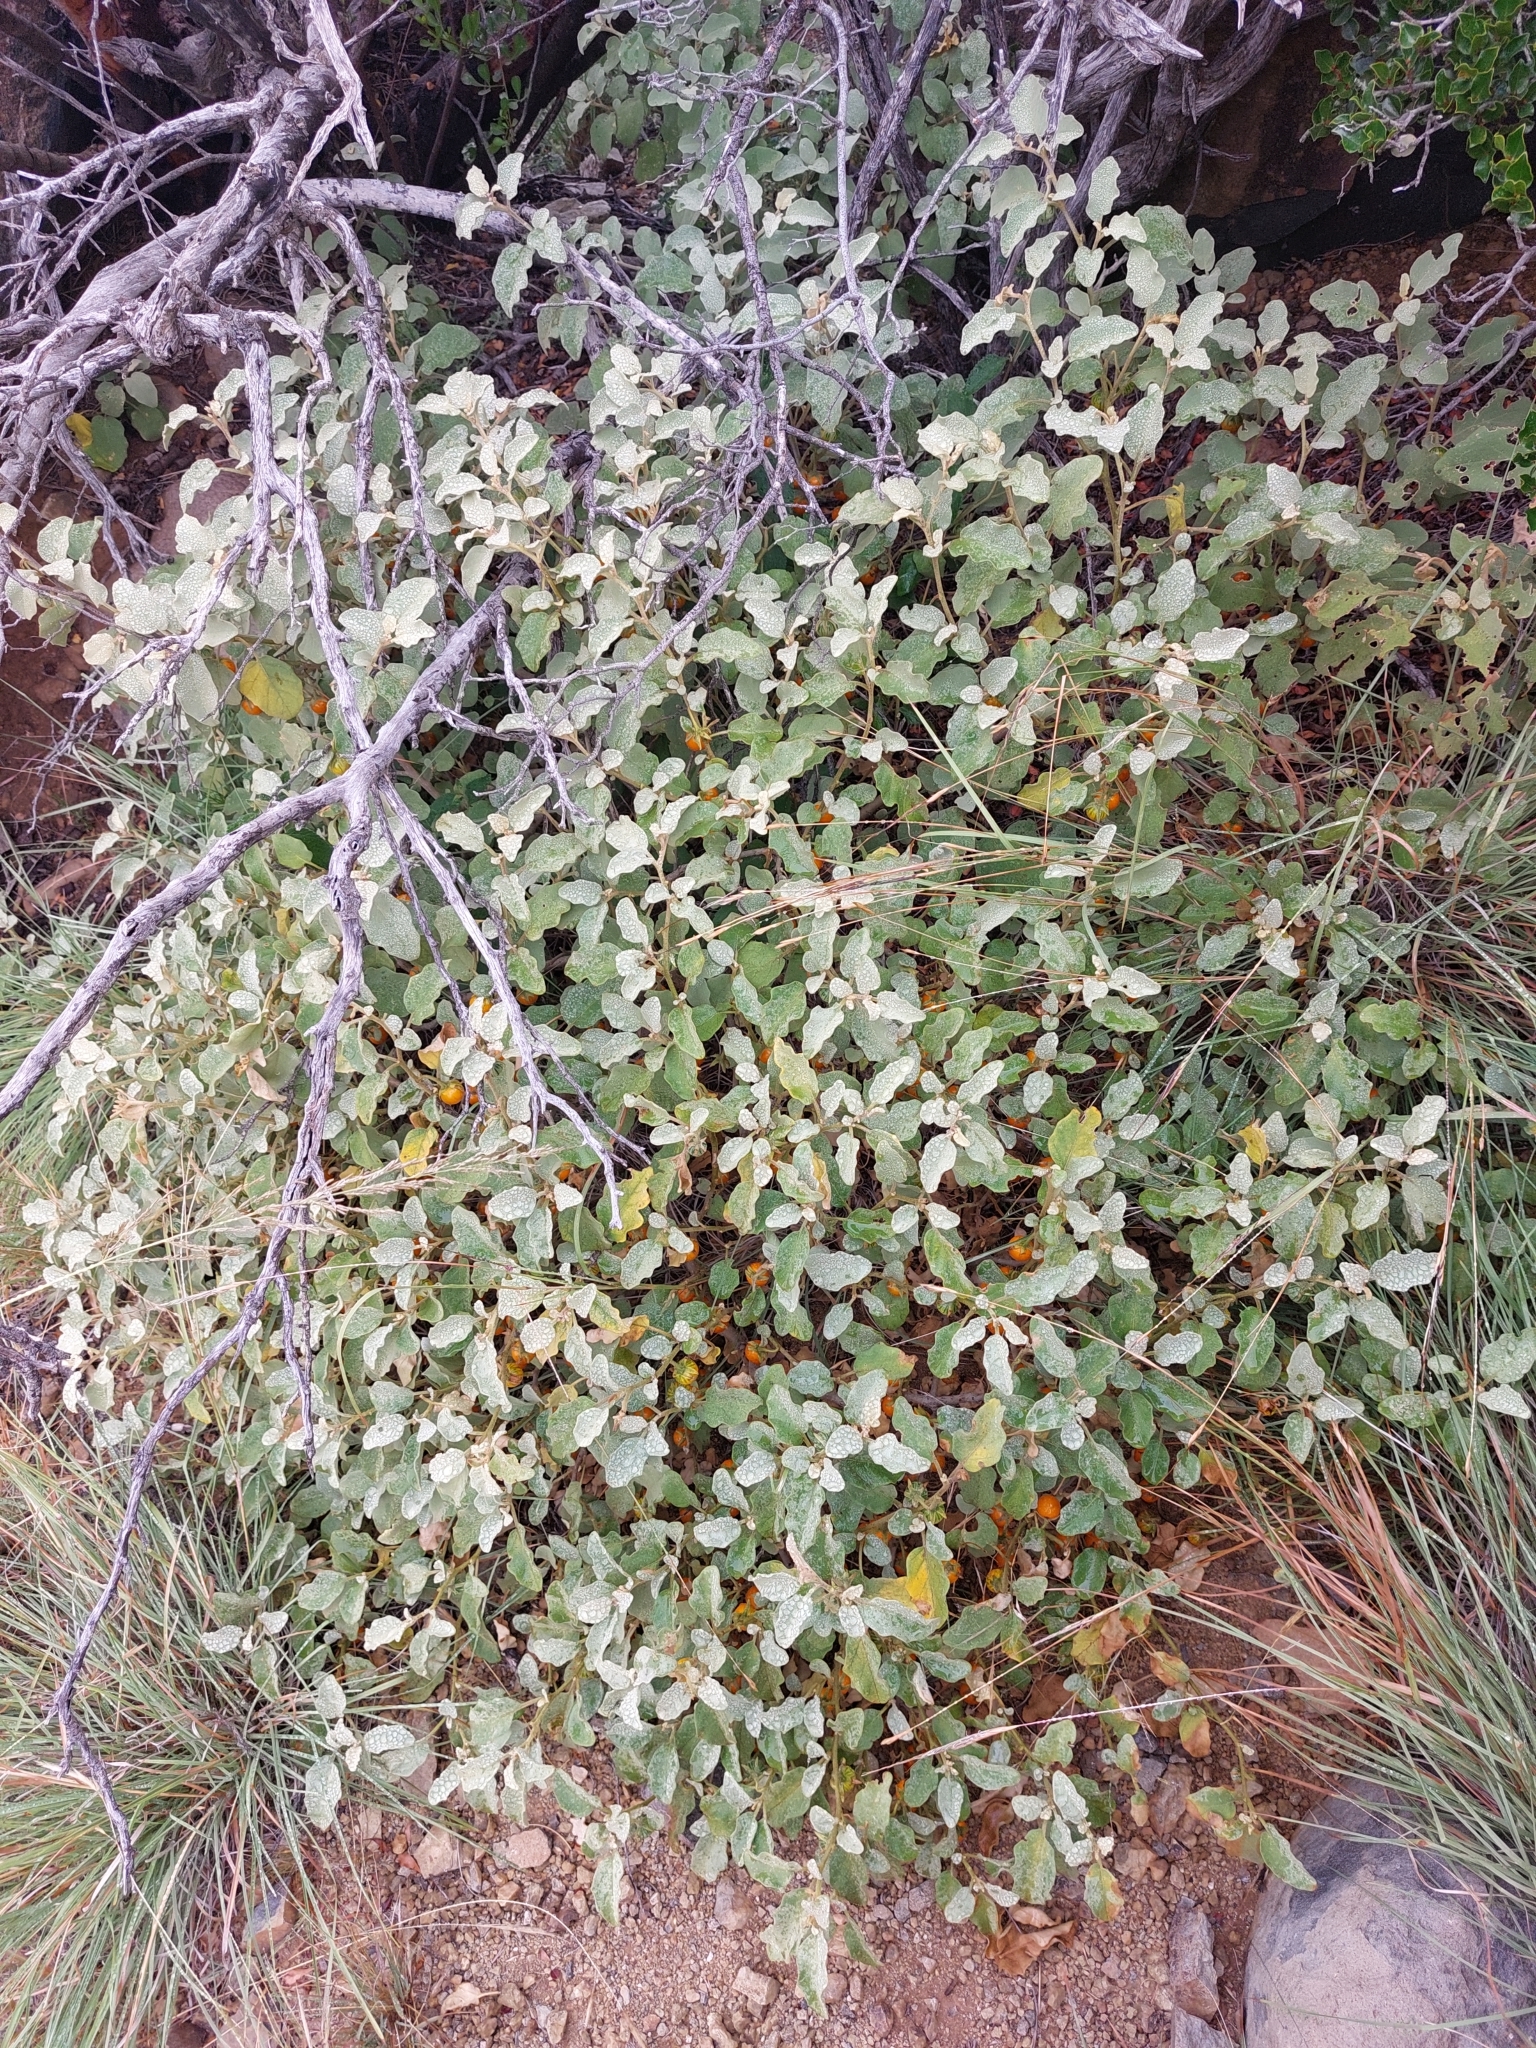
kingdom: Plantae
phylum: Tracheophyta
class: Magnoliopsida
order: Solanales
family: Solanaceae
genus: Solanum
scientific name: Solanum tomentosum
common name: Wild aubergine
